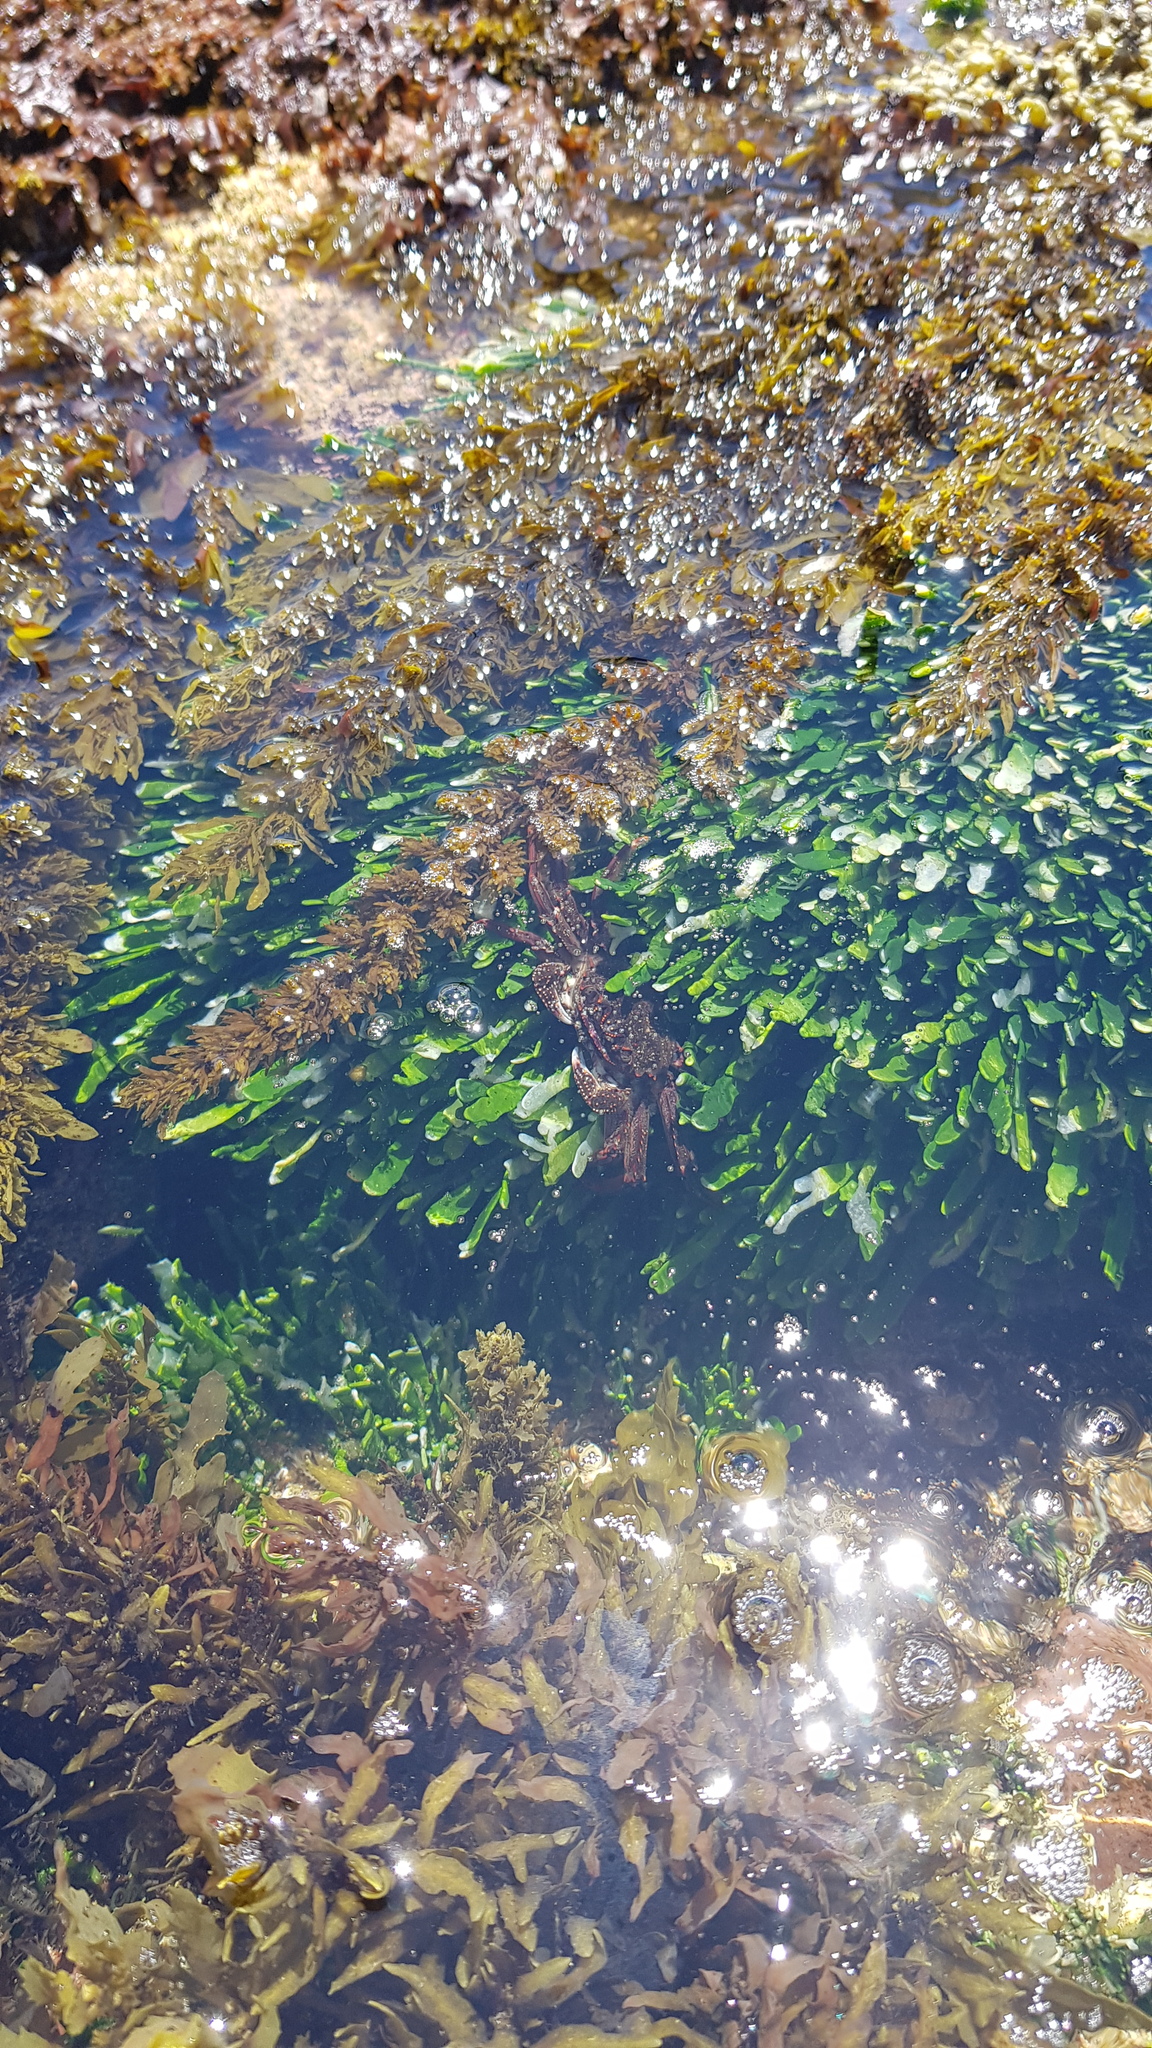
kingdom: Animalia
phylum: Arthropoda
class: Malacostraca
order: Decapoda
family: Plagusiidae
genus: Guinusia
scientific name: Guinusia chabrus
